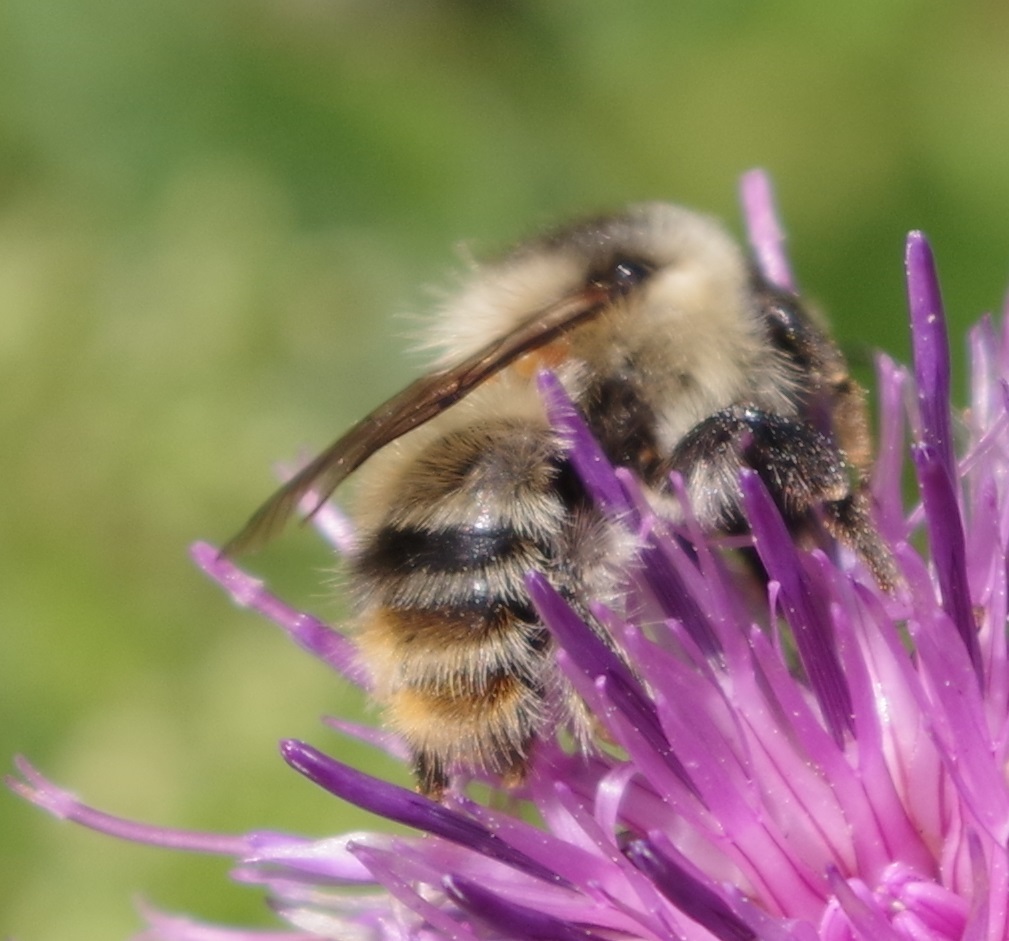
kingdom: Animalia
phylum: Arthropoda
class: Insecta
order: Hymenoptera
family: Apidae
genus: Bombus
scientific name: Bombus sylvarum
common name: Shrill carder bee
